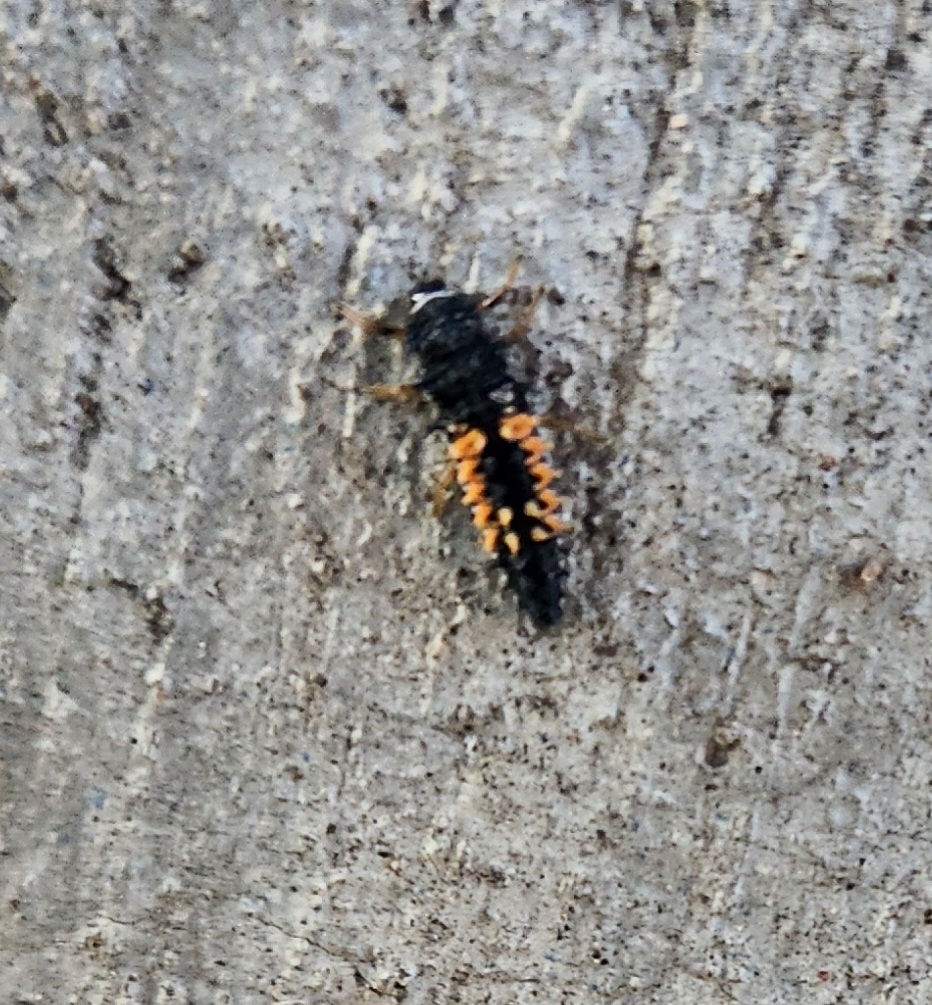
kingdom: Animalia
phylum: Arthropoda
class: Insecta
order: Coleoptera
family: Coccinellidae
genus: Harmonia
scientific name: Harmonia axyridis
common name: Harlequin ladybird
